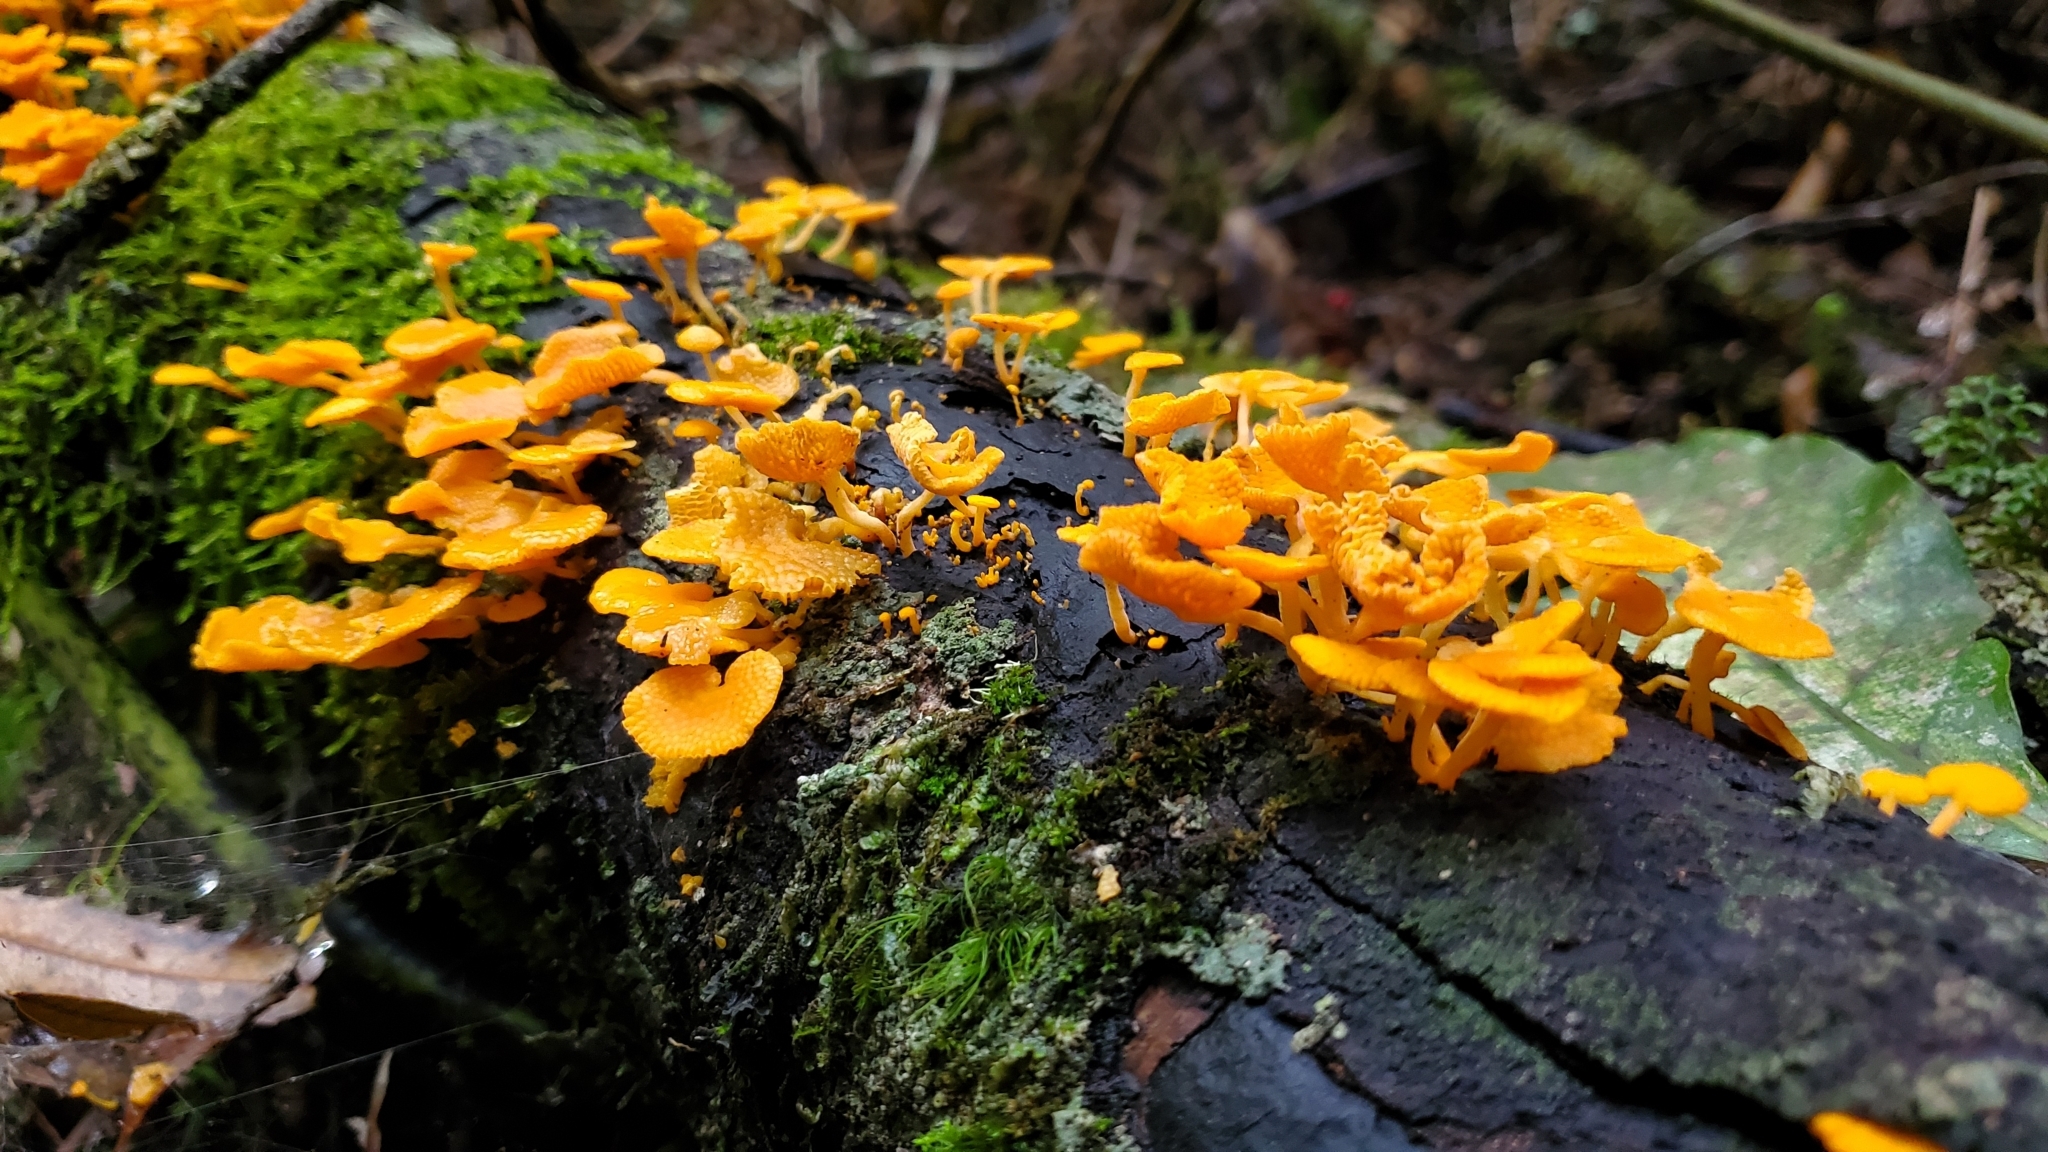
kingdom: Fungi
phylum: Basidiomycota
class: Agaricomycetes
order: Agaricales
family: Mycenaceae
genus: Favolaschia
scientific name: Favolaschia claudopus
